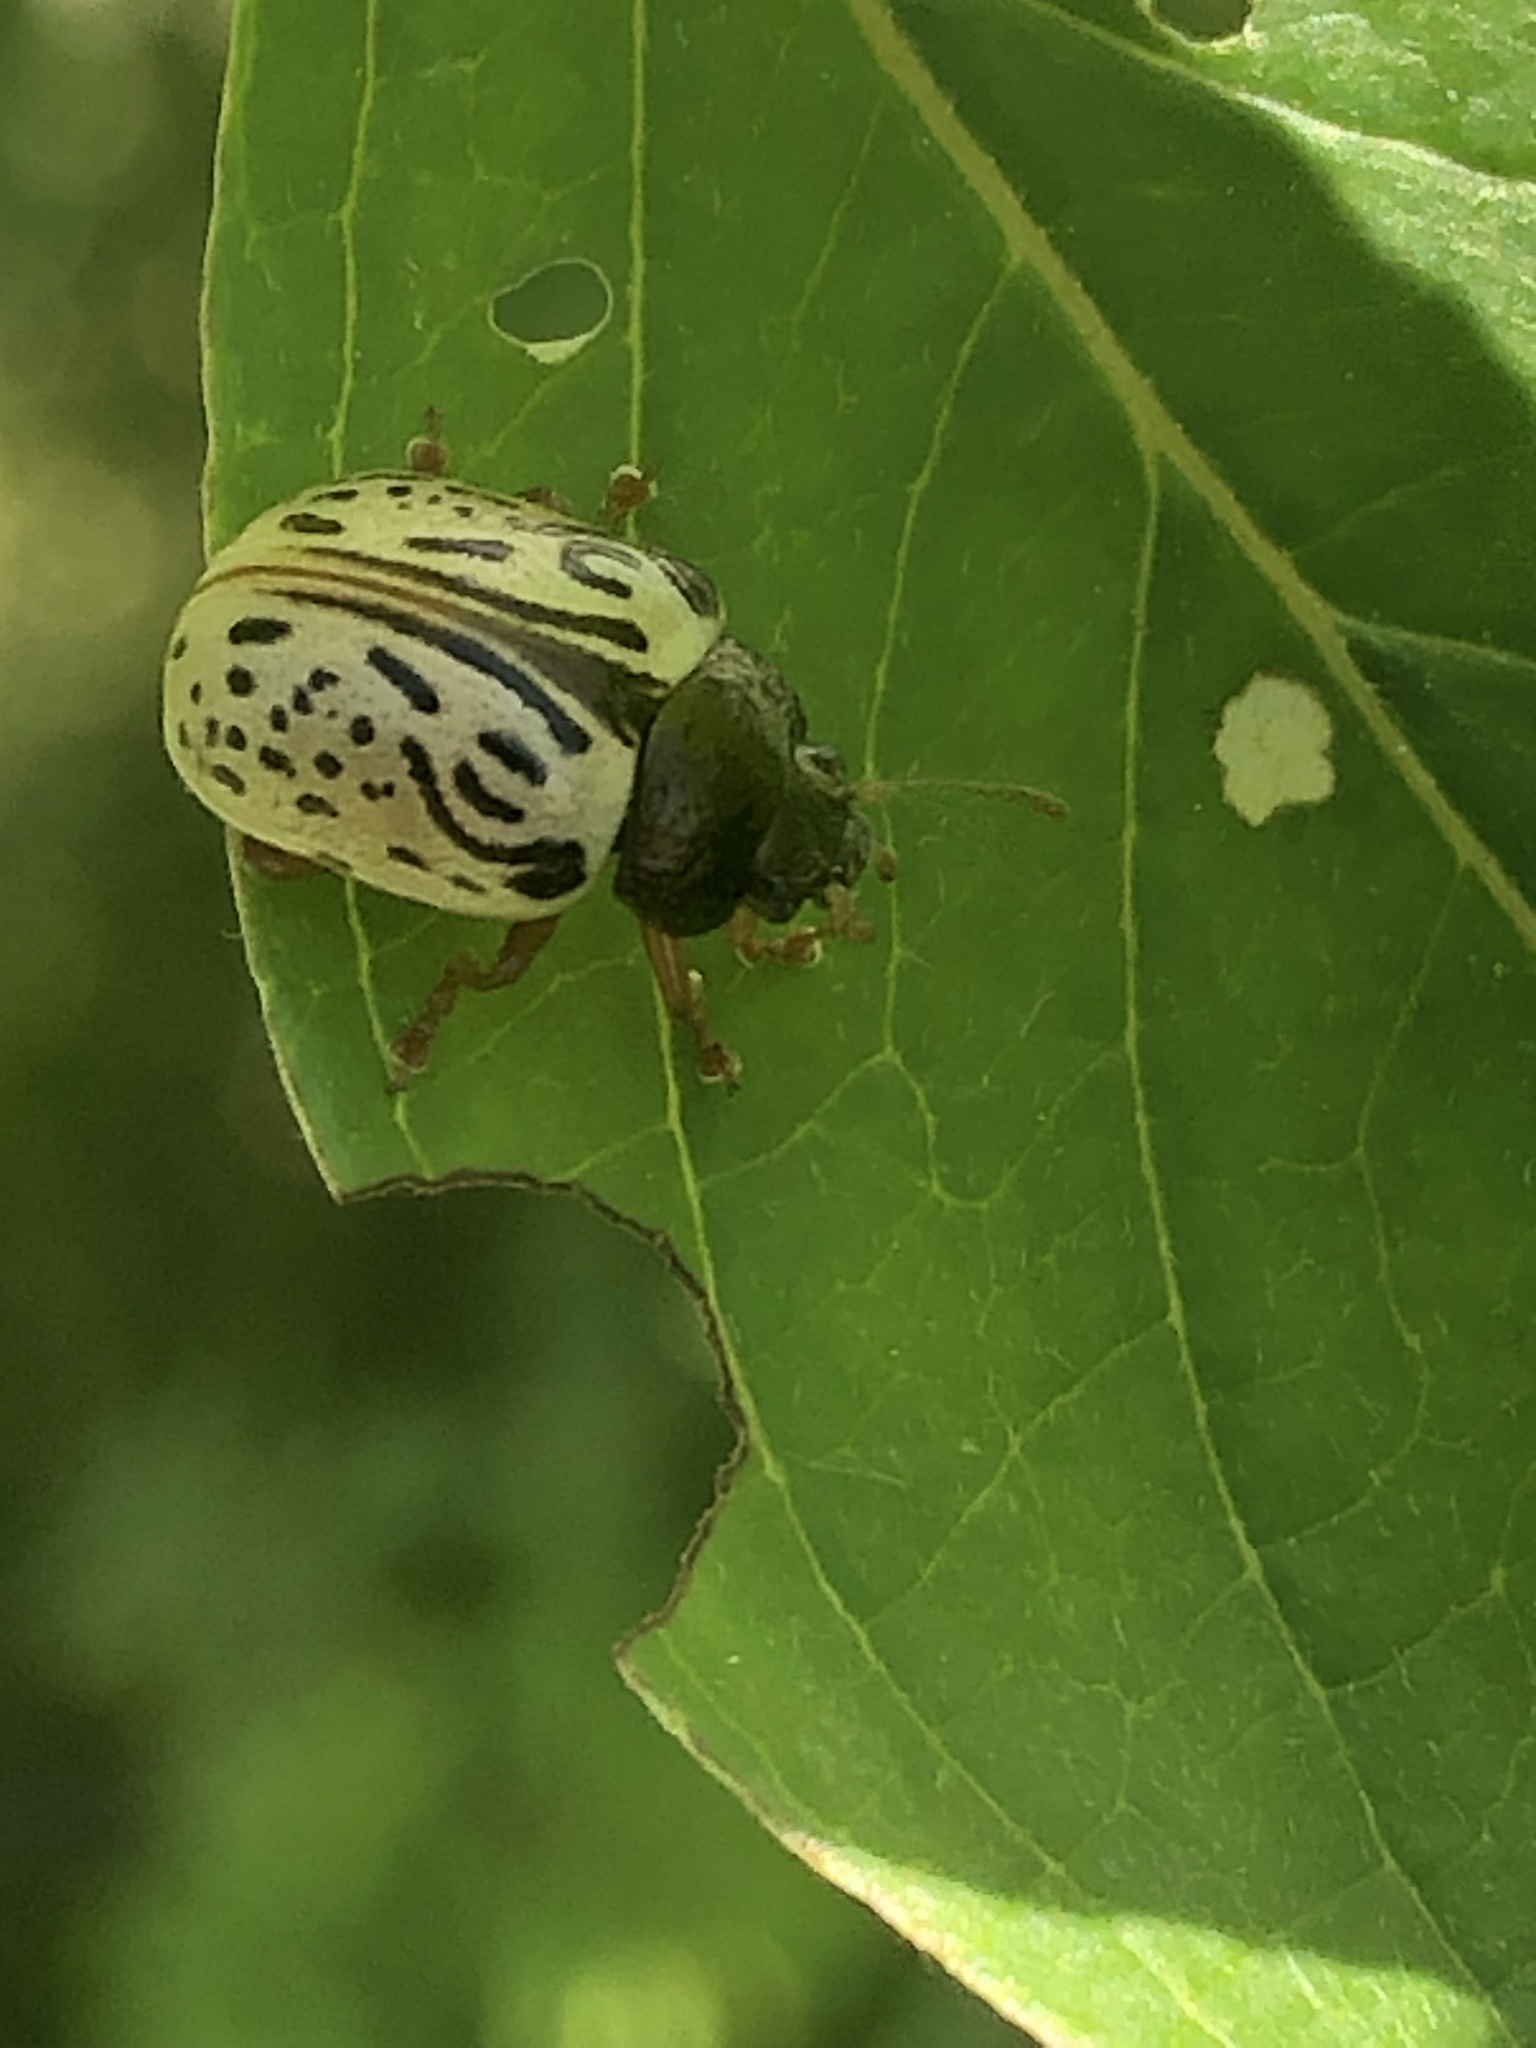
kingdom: Animalia
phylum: Arthropoda
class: Insecta
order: Coleoptera
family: Chrysomelidae
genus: Calligrapha
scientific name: Calligrapha philadelphica
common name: Dogwood leaf beetle
